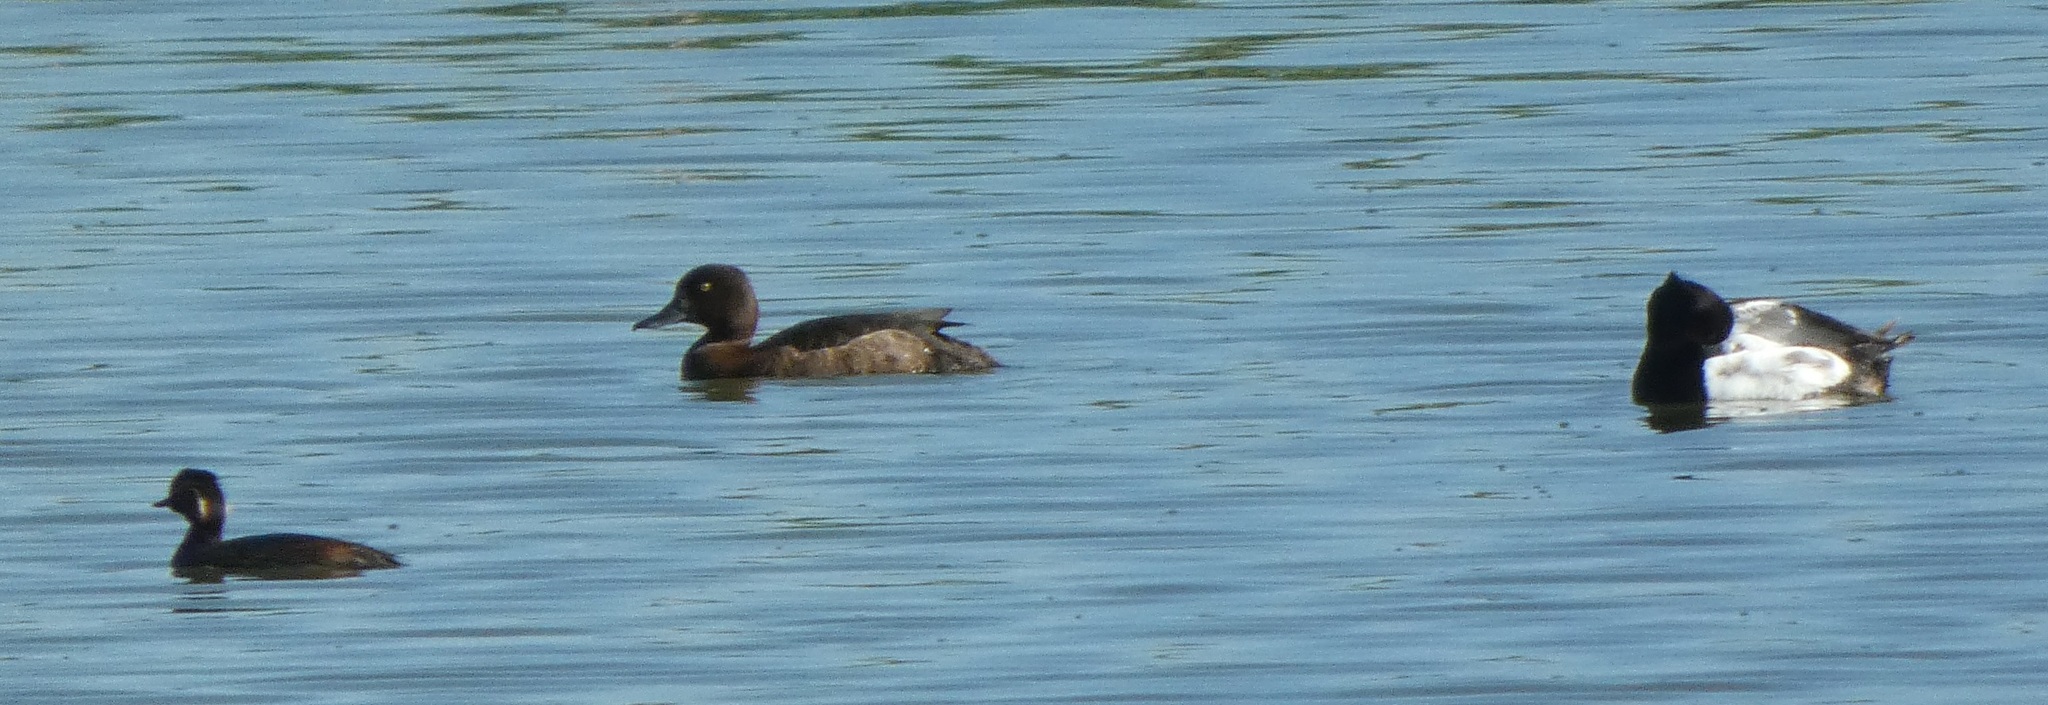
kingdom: Animalia
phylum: Chordata
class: Aves
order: Anseriformes
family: Anatidae
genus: Aythya
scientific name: Aythya fuligula
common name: Tufted duck
